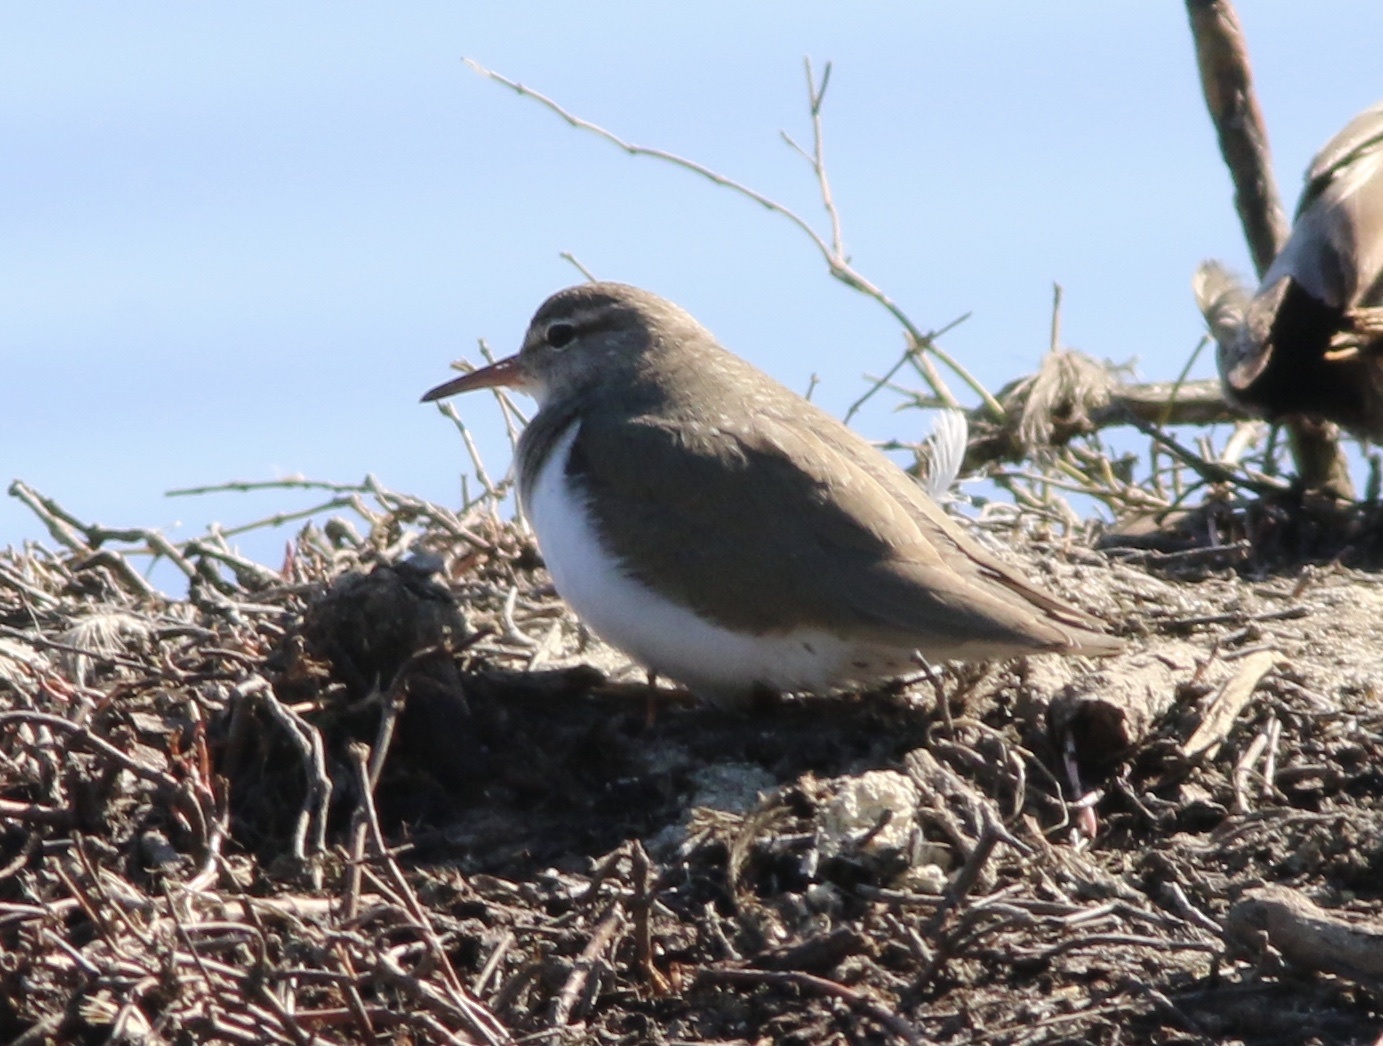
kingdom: Animalia
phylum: Chordata
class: Aves
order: Charadriiformes
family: Scolopacidae
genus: Actitis
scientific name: Actitis macularius
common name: Spotted sandpiper
